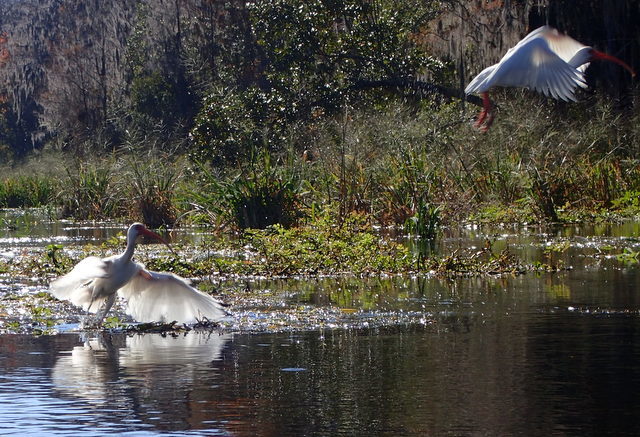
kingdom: Animalia
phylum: Chordata
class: Aves
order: Pelecaniformes
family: Threskiornithidae
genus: Eudocimus
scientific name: Eudocimus albus
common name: White ibis
